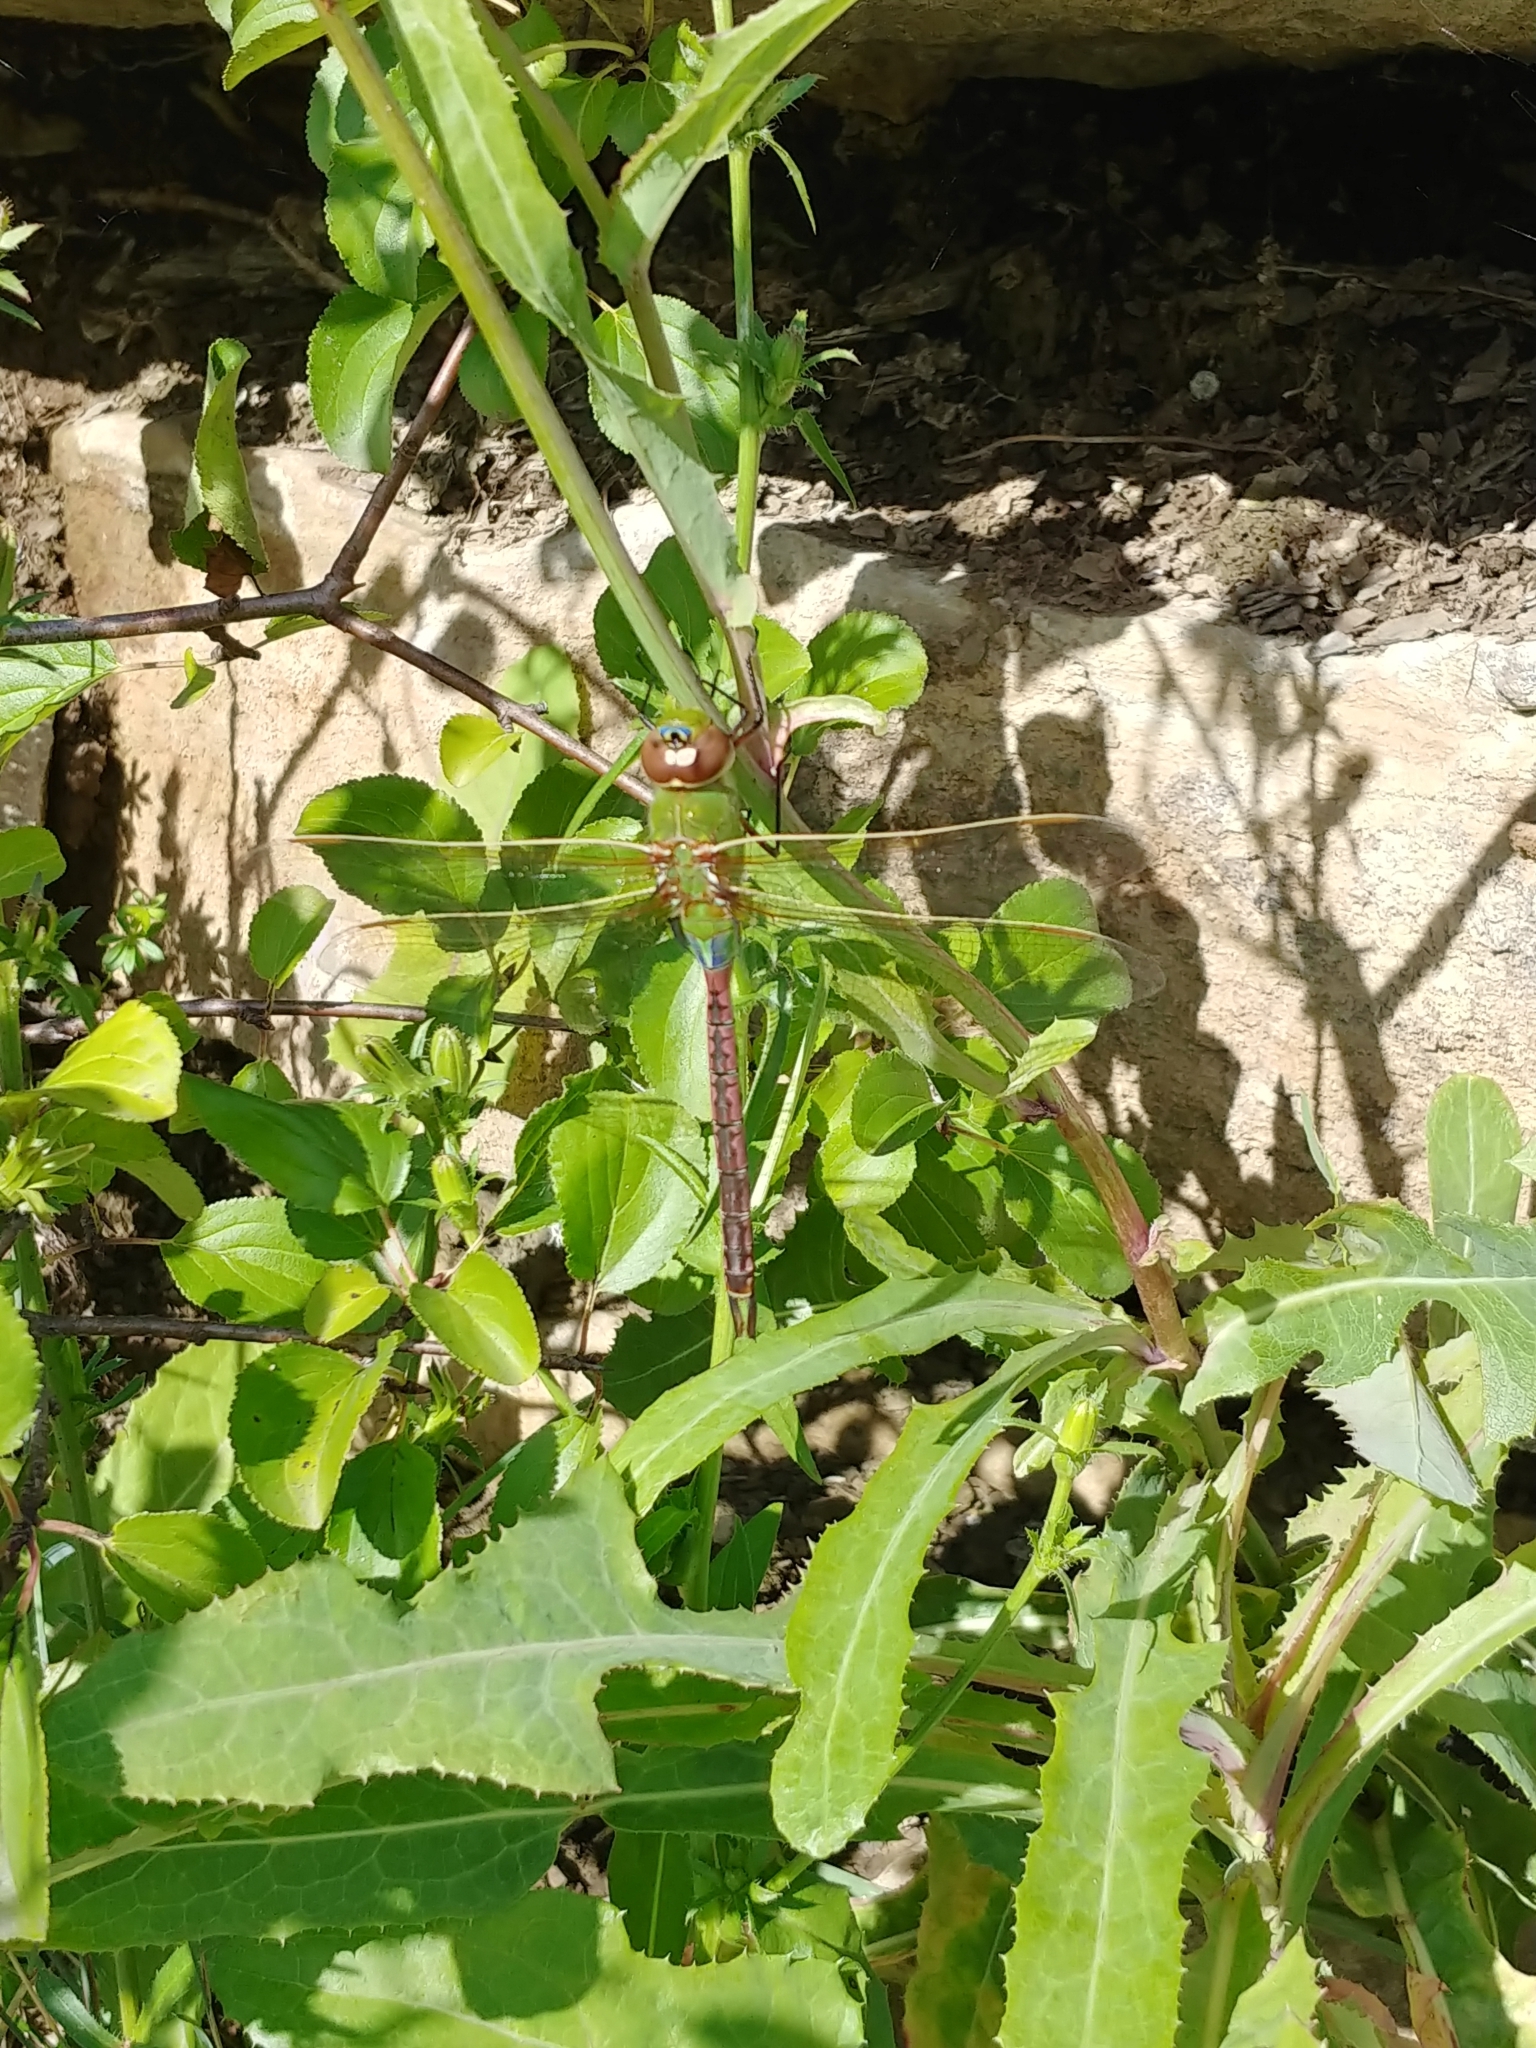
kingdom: Animalia
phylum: Arthropoda
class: Insecta
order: Odonata
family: Aeshnidae
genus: Anax
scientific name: Anax junius
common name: Common green darner
